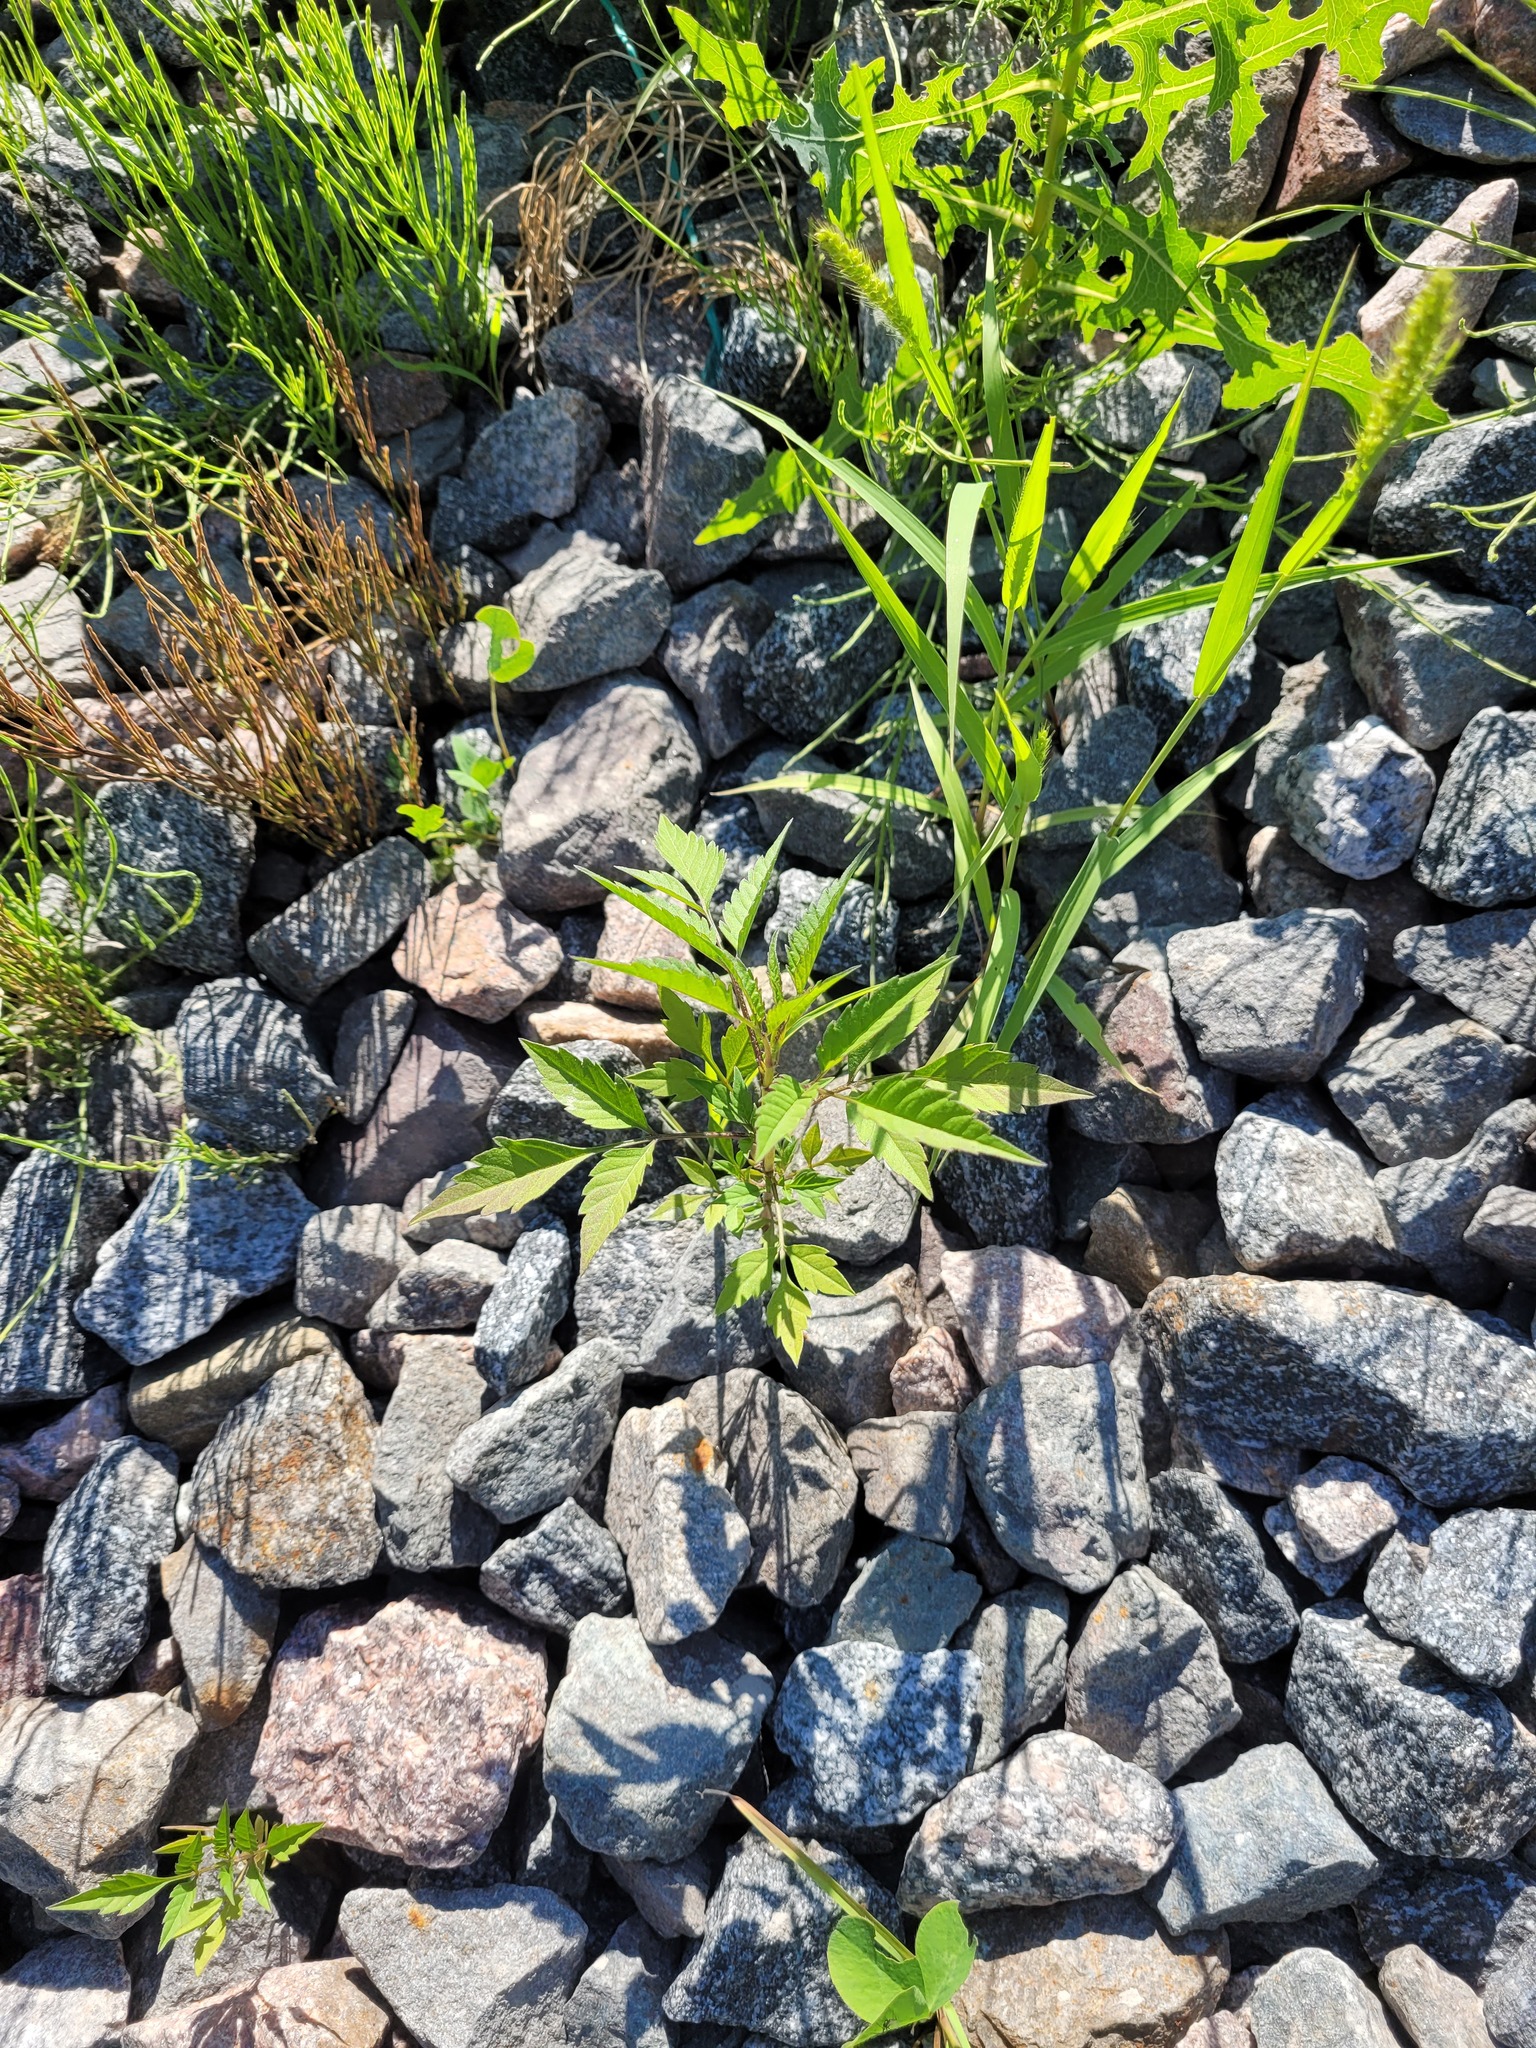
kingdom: Plantae
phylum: Tracheophyta
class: Magnoliopsida
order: Asterales
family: Asteraceae
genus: Bidens
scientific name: Bidens frondosa
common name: Beggarticks
